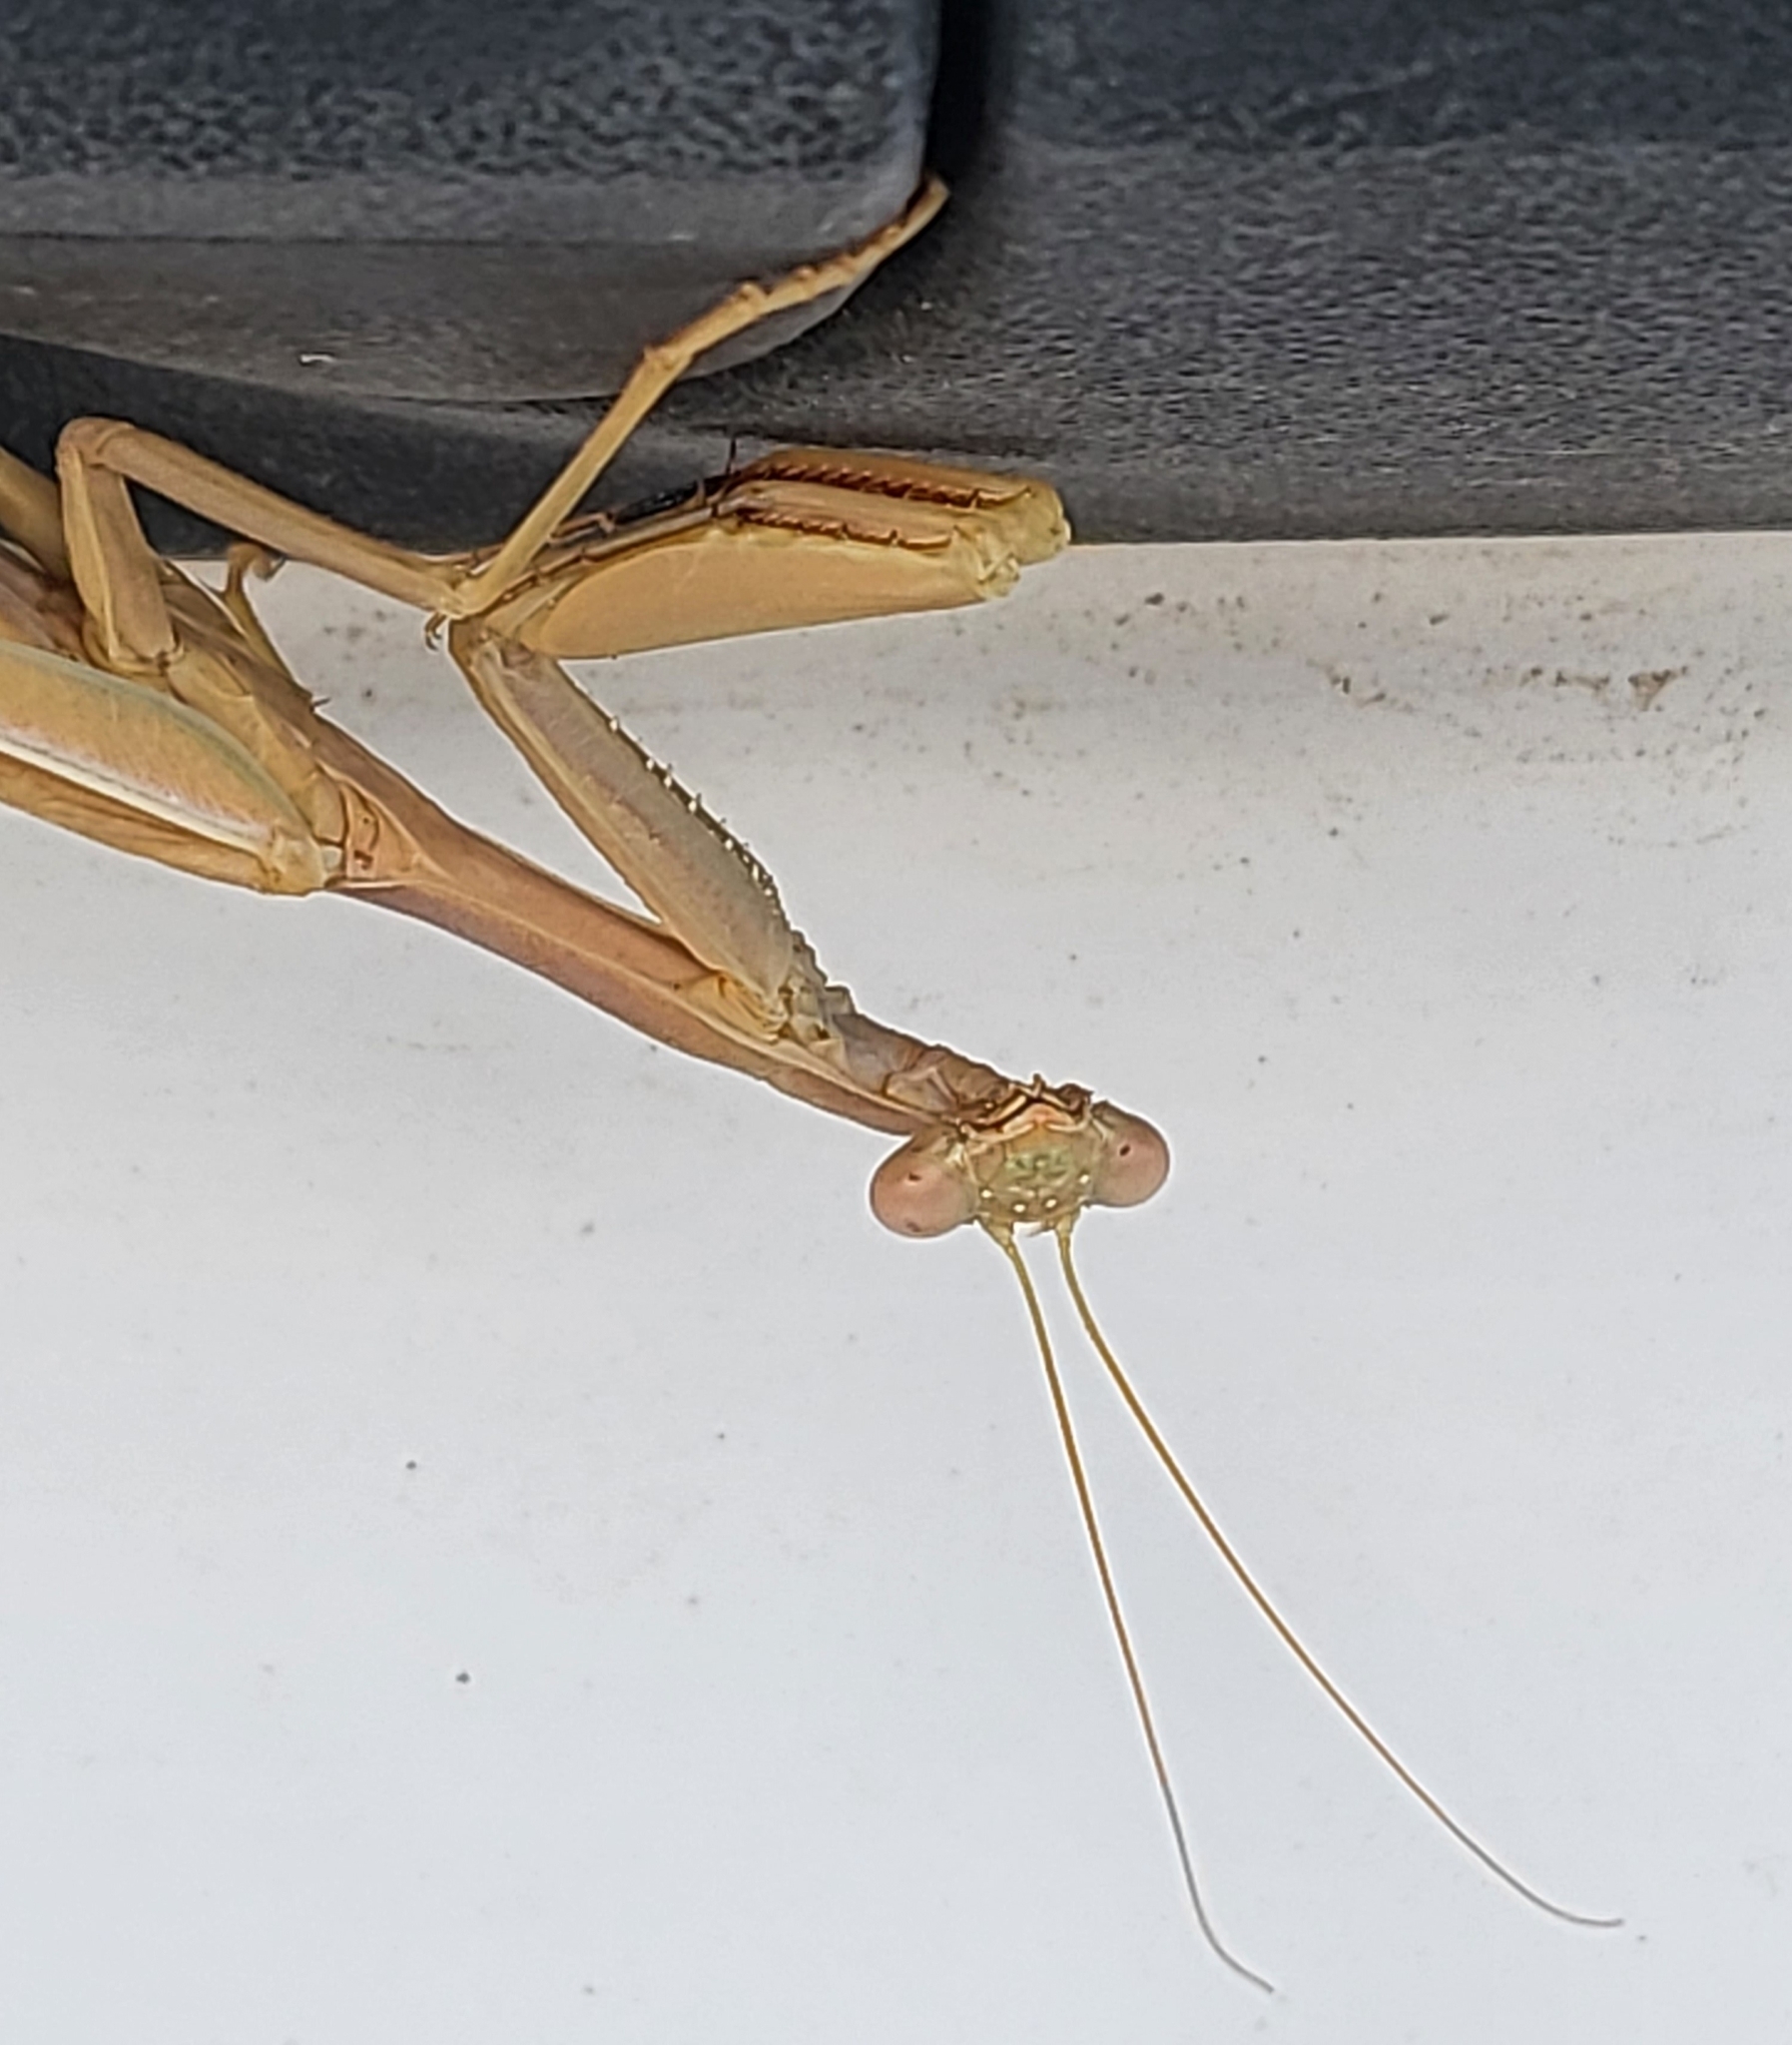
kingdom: Animalia
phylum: Arthropoda
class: Insecta
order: Mantodea
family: Eremiaphilidae
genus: Iris
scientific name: Iris oratoria
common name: Mediterranean mantis
